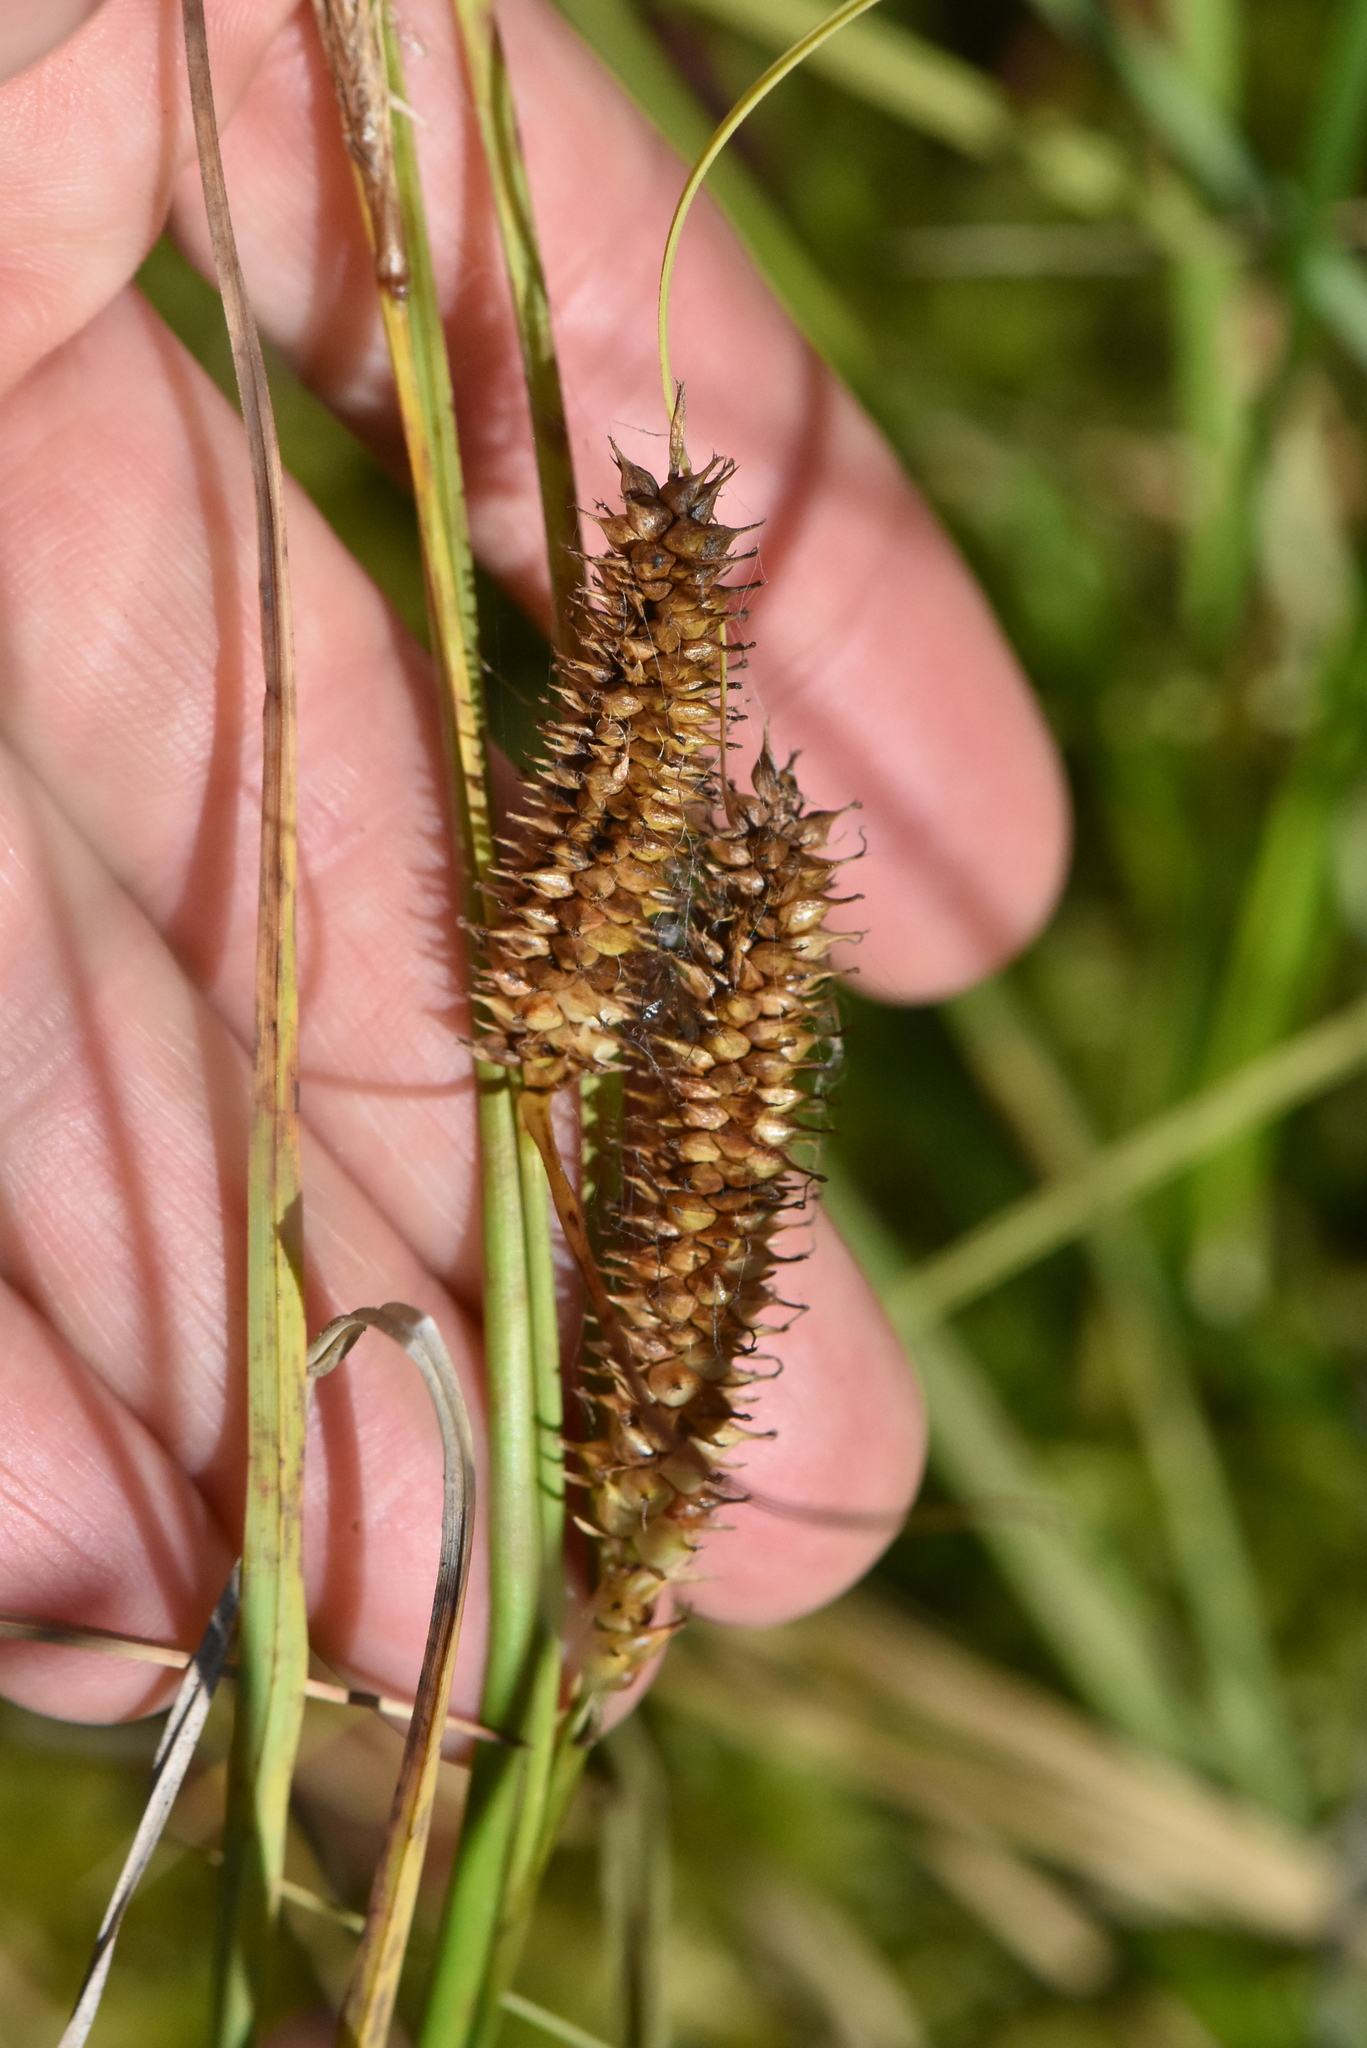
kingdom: Plantae
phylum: Tracheophyta
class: Liliopsida
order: Poales
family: Cyperaceae
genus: Carex
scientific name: Carex rostrata
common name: Bottle sedge
